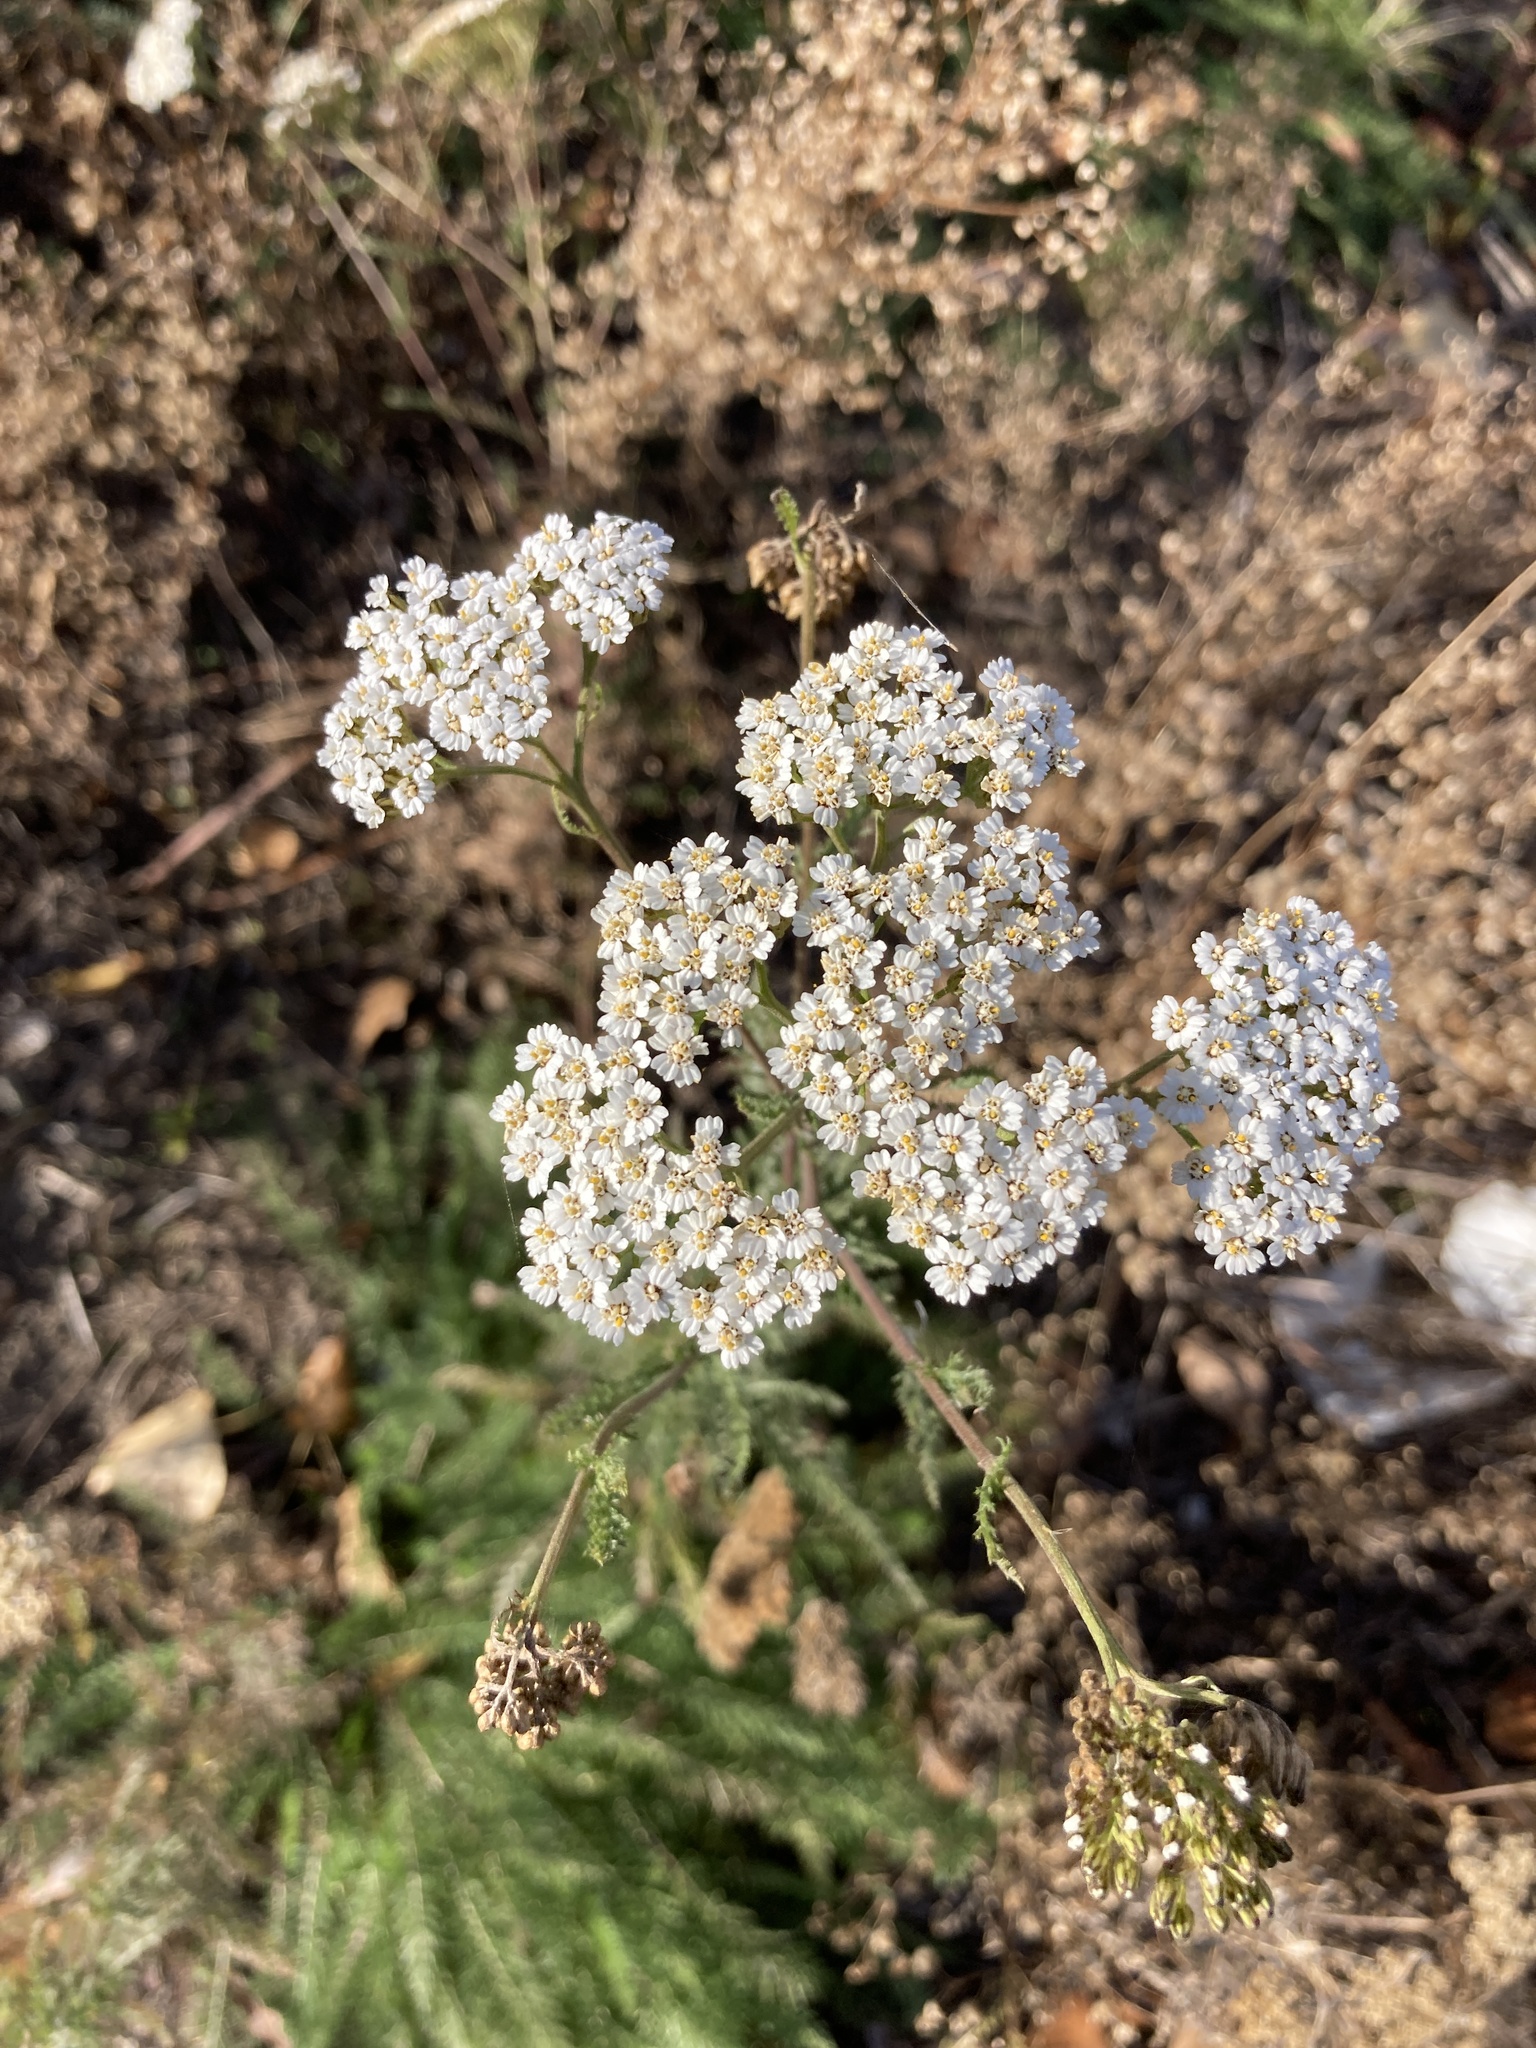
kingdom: Plantae
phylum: Tracheophyta
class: Magnoliopsida
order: Asterales
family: Asteraceae
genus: Achillea
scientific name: Achillea setacea
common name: Bristly yarrow
